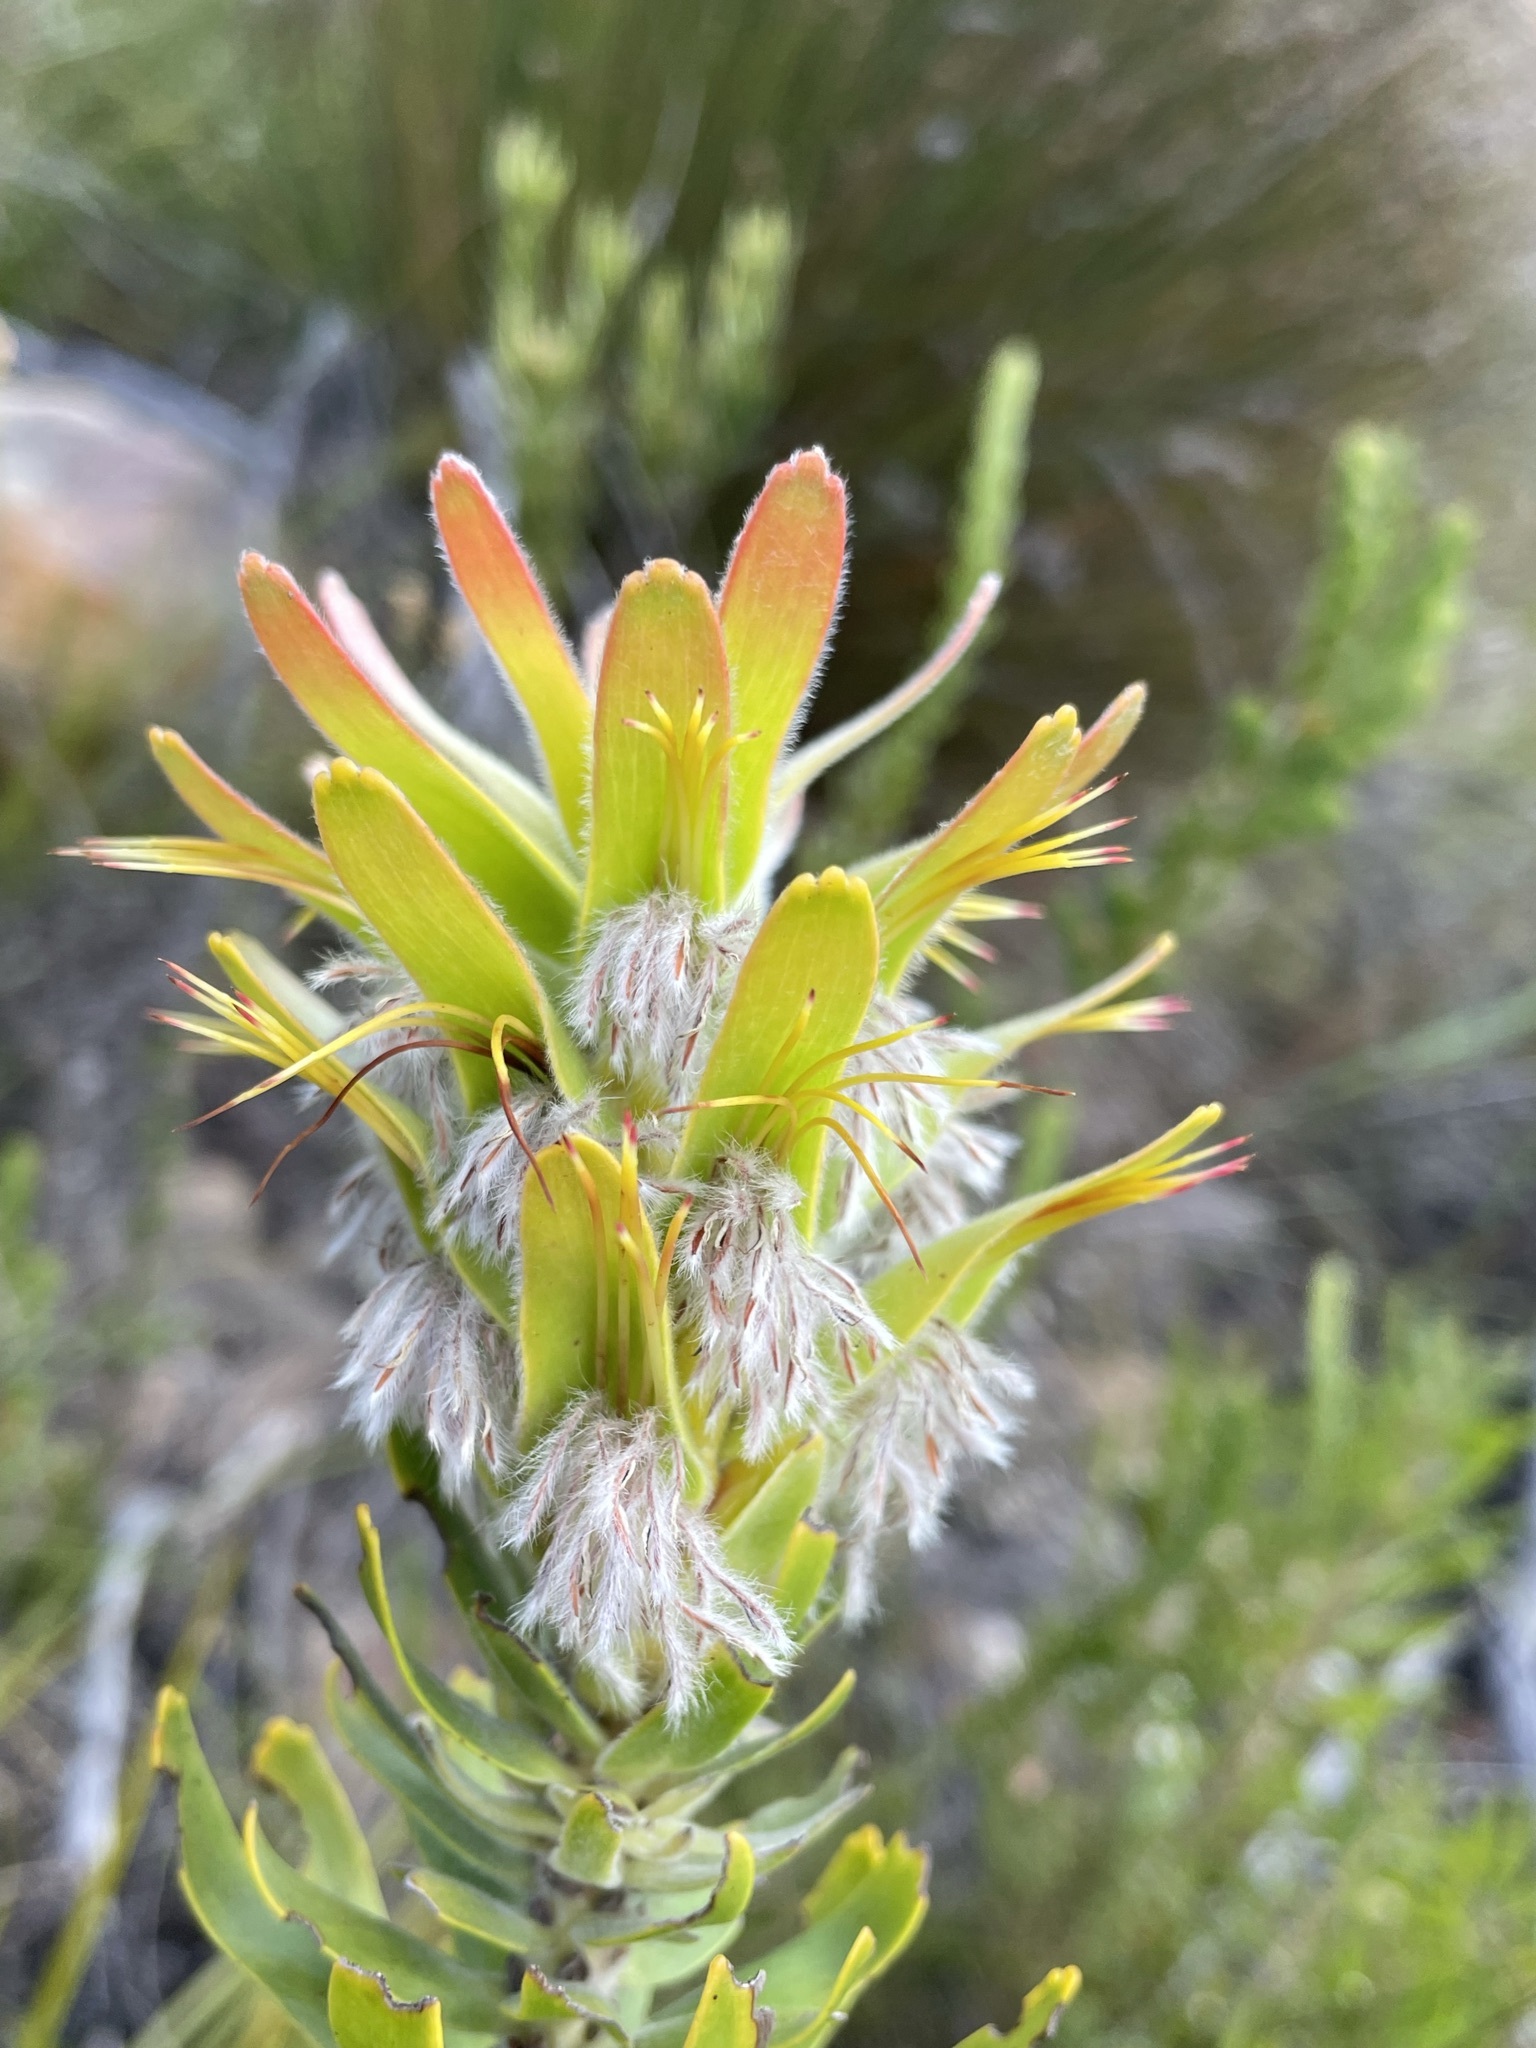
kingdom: Plantae
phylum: Tracheophyta
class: Magnoliopsida
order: Proteales
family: Proteaceae
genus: Mimetes
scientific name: Mimetes cucullatus
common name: Common pagoda
